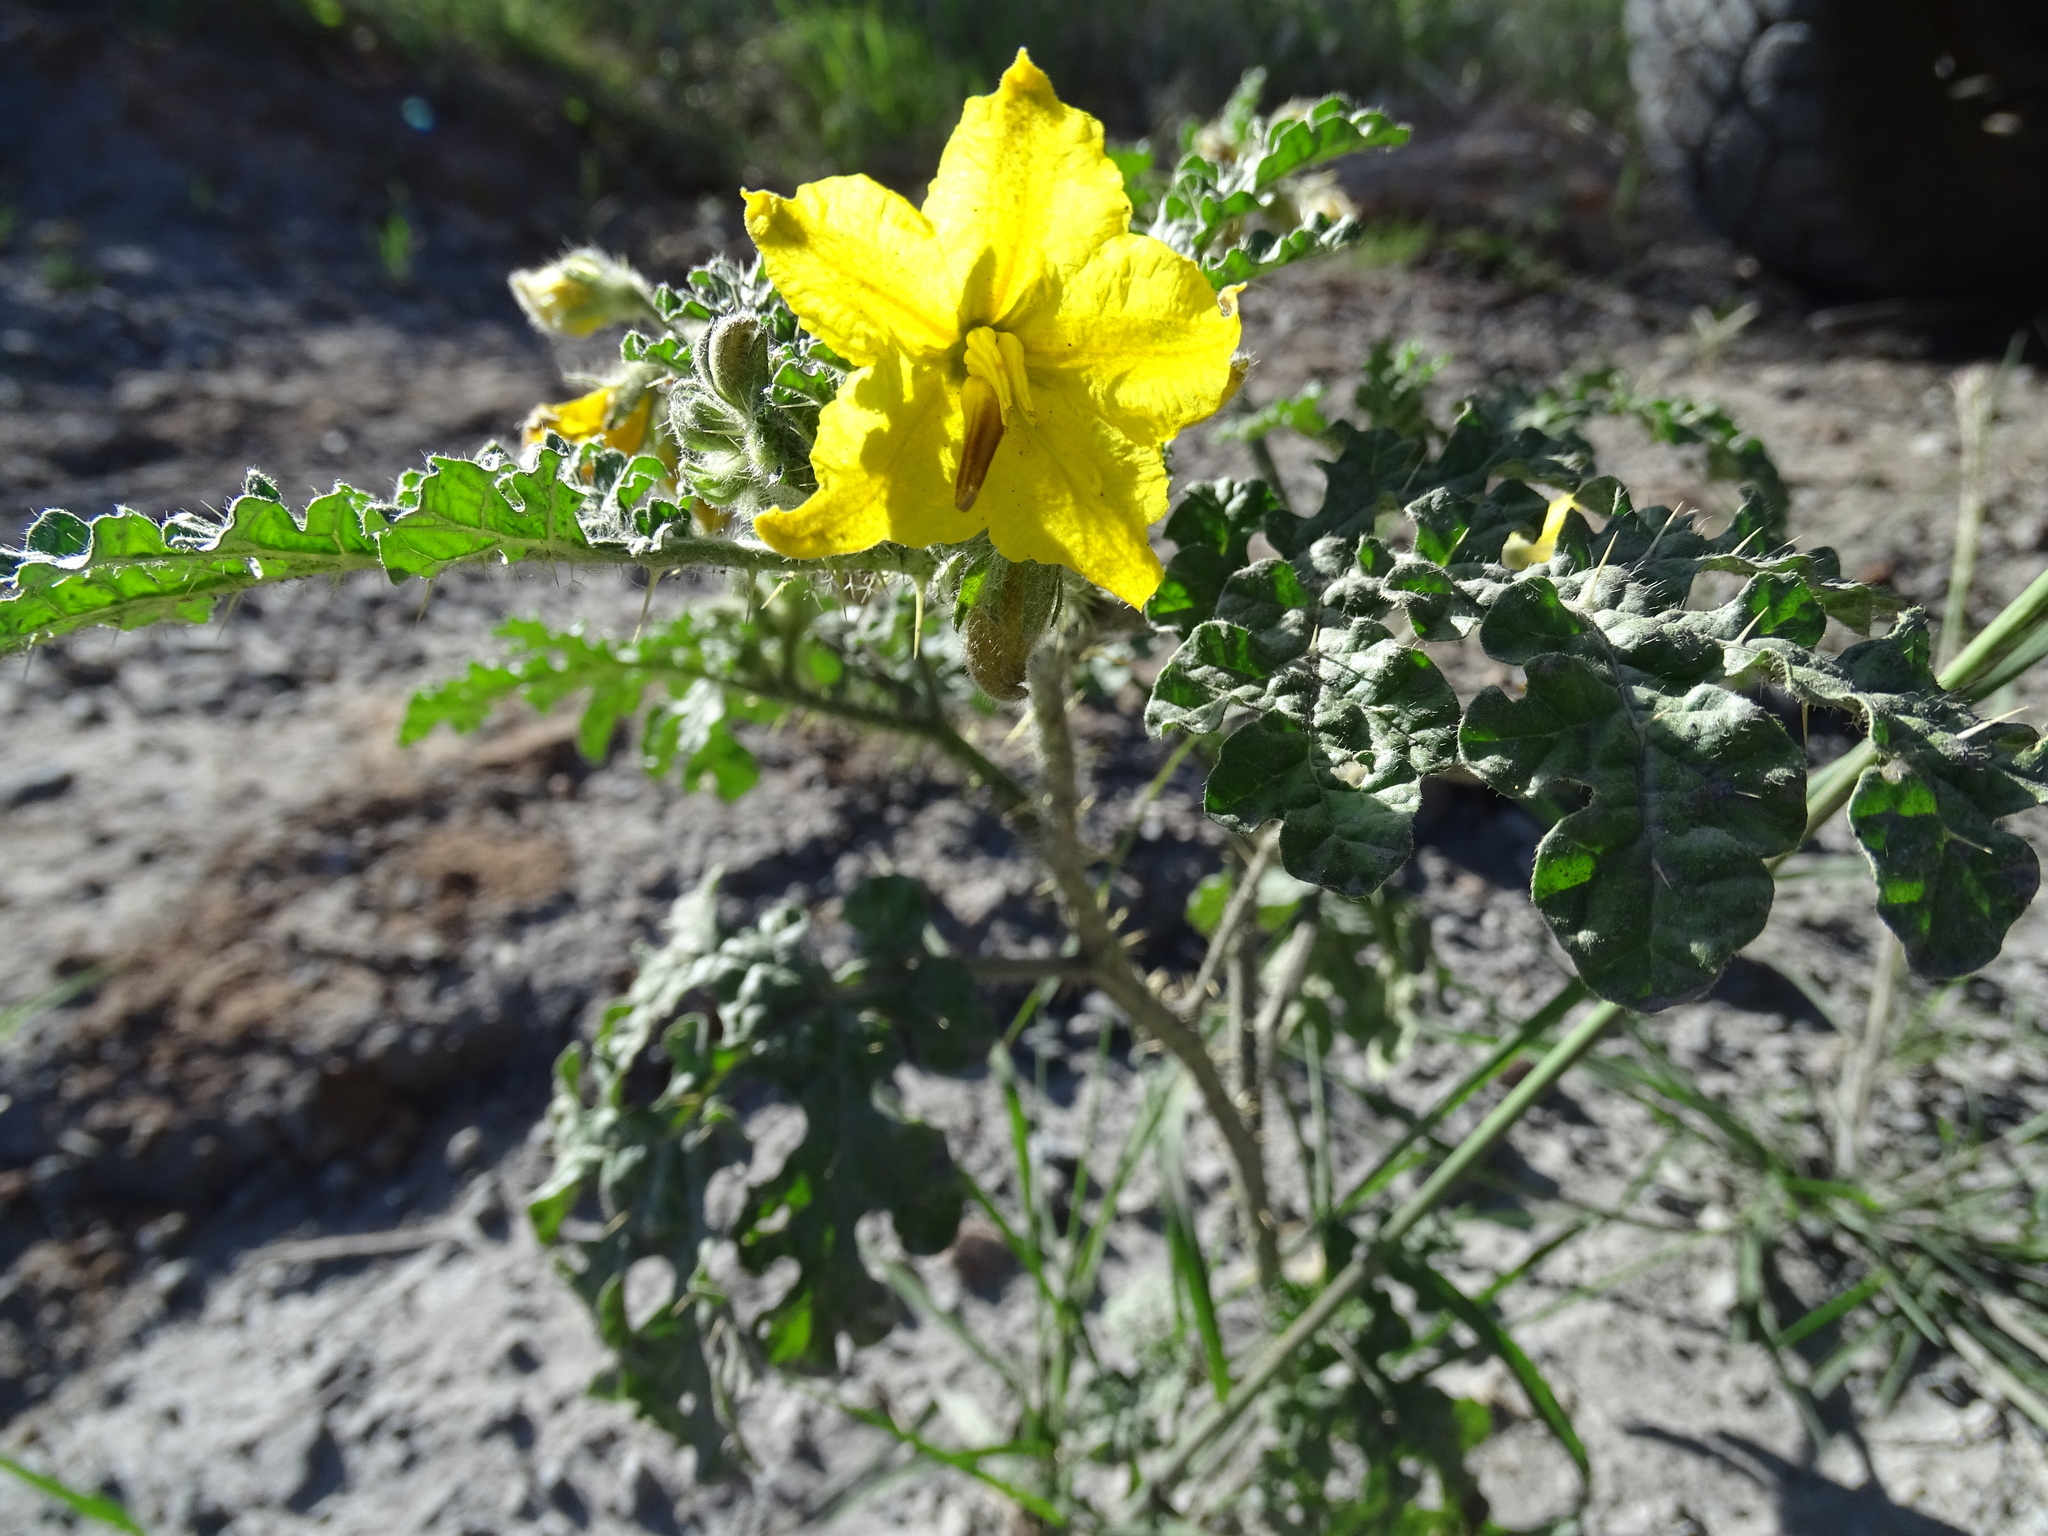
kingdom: Plantae
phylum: Tracheophyta
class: Magnoliopsida
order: Solanales
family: Solanaceae
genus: Solanum
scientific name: Solanum angustifolium
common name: Buffalobur nightshade
